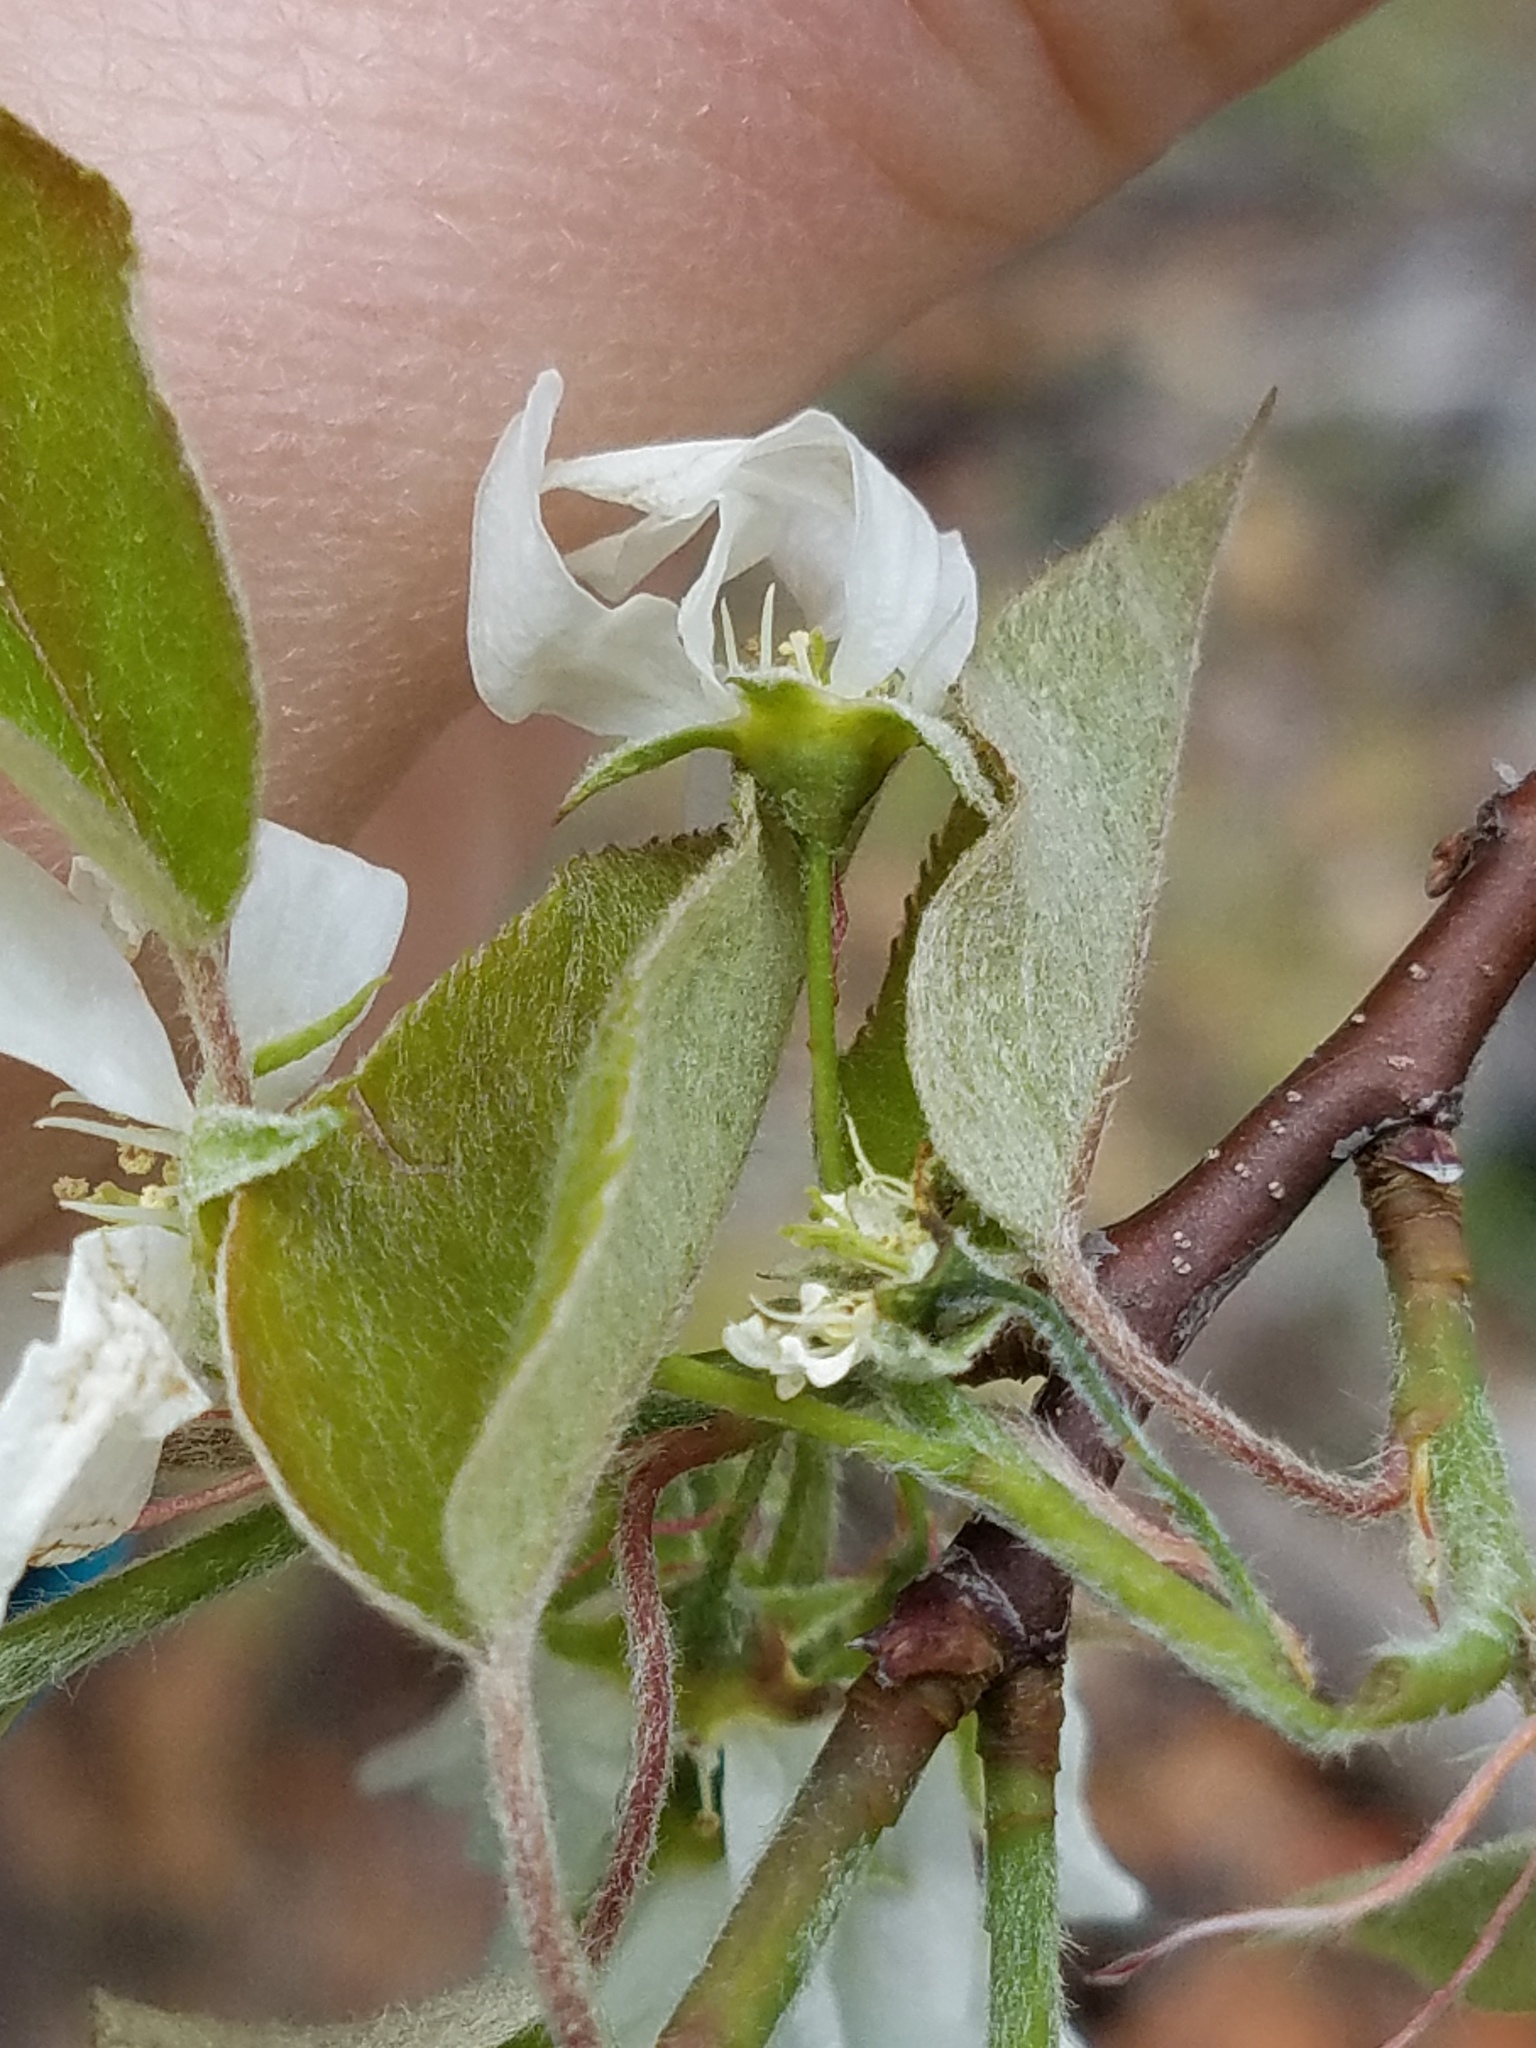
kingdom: Plantae
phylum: Tracheophyta
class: Magnoliopsida
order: Rosales
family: Rosaceae
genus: Amelanchier
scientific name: Amelanchier sanguinea
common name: Huron serviceberry
